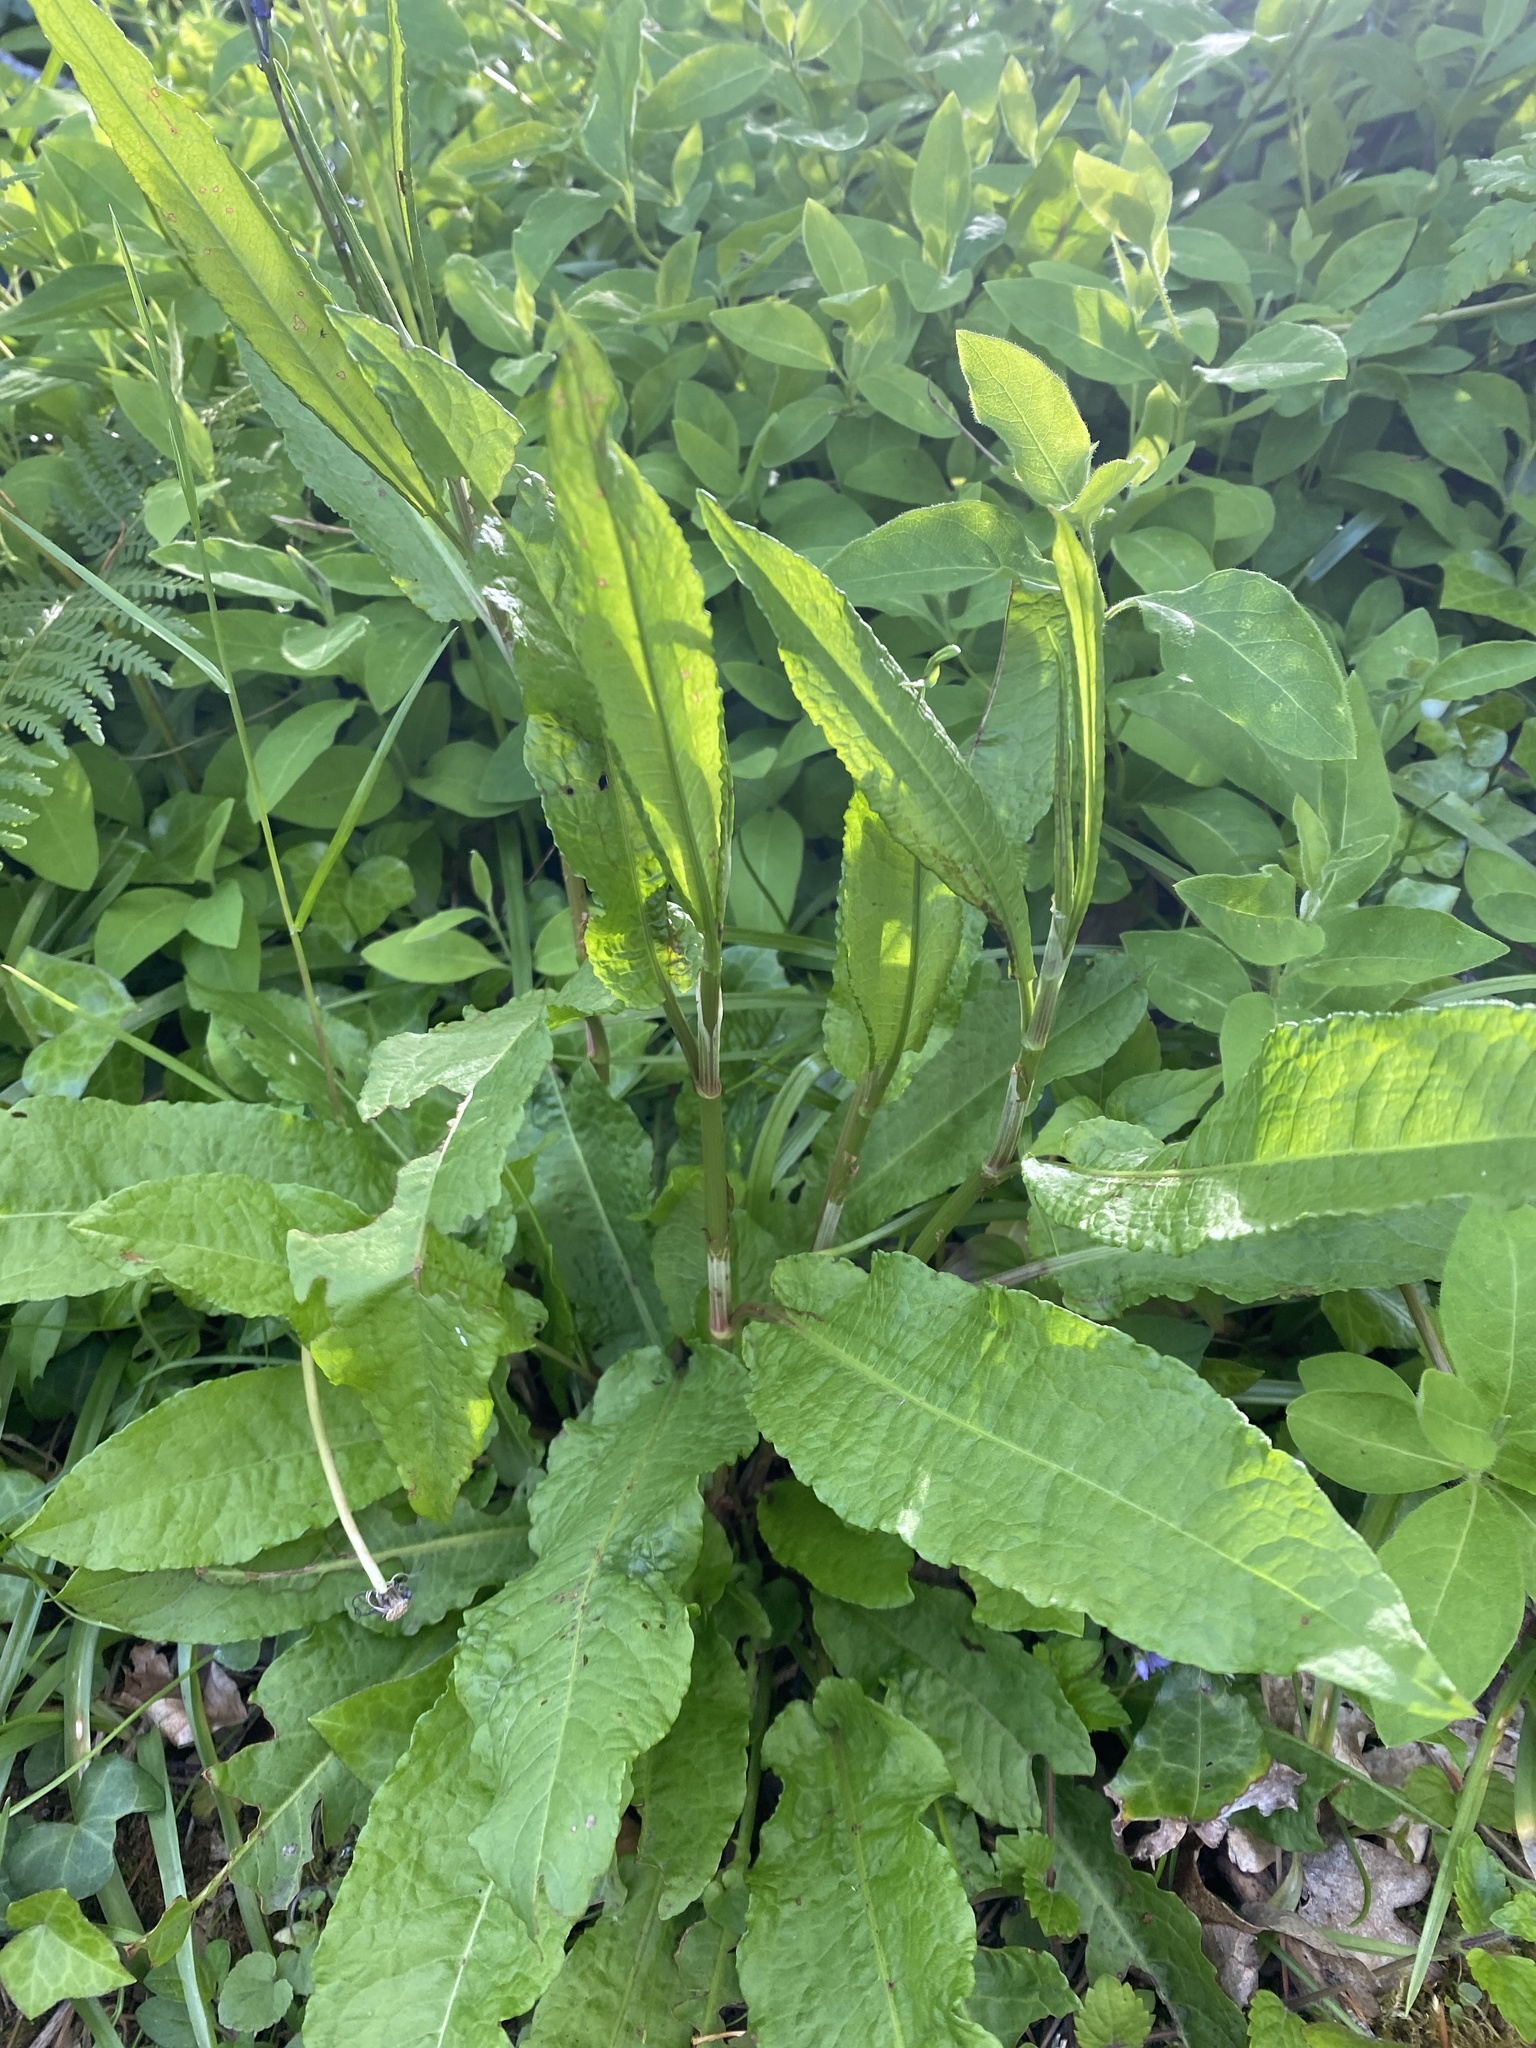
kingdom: Plantae
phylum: Tracheophyta
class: Magnoliopsida
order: Caryophyllales
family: Polygonaceae
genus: Rumex
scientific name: Rumex sanguineus
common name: Wood dock
